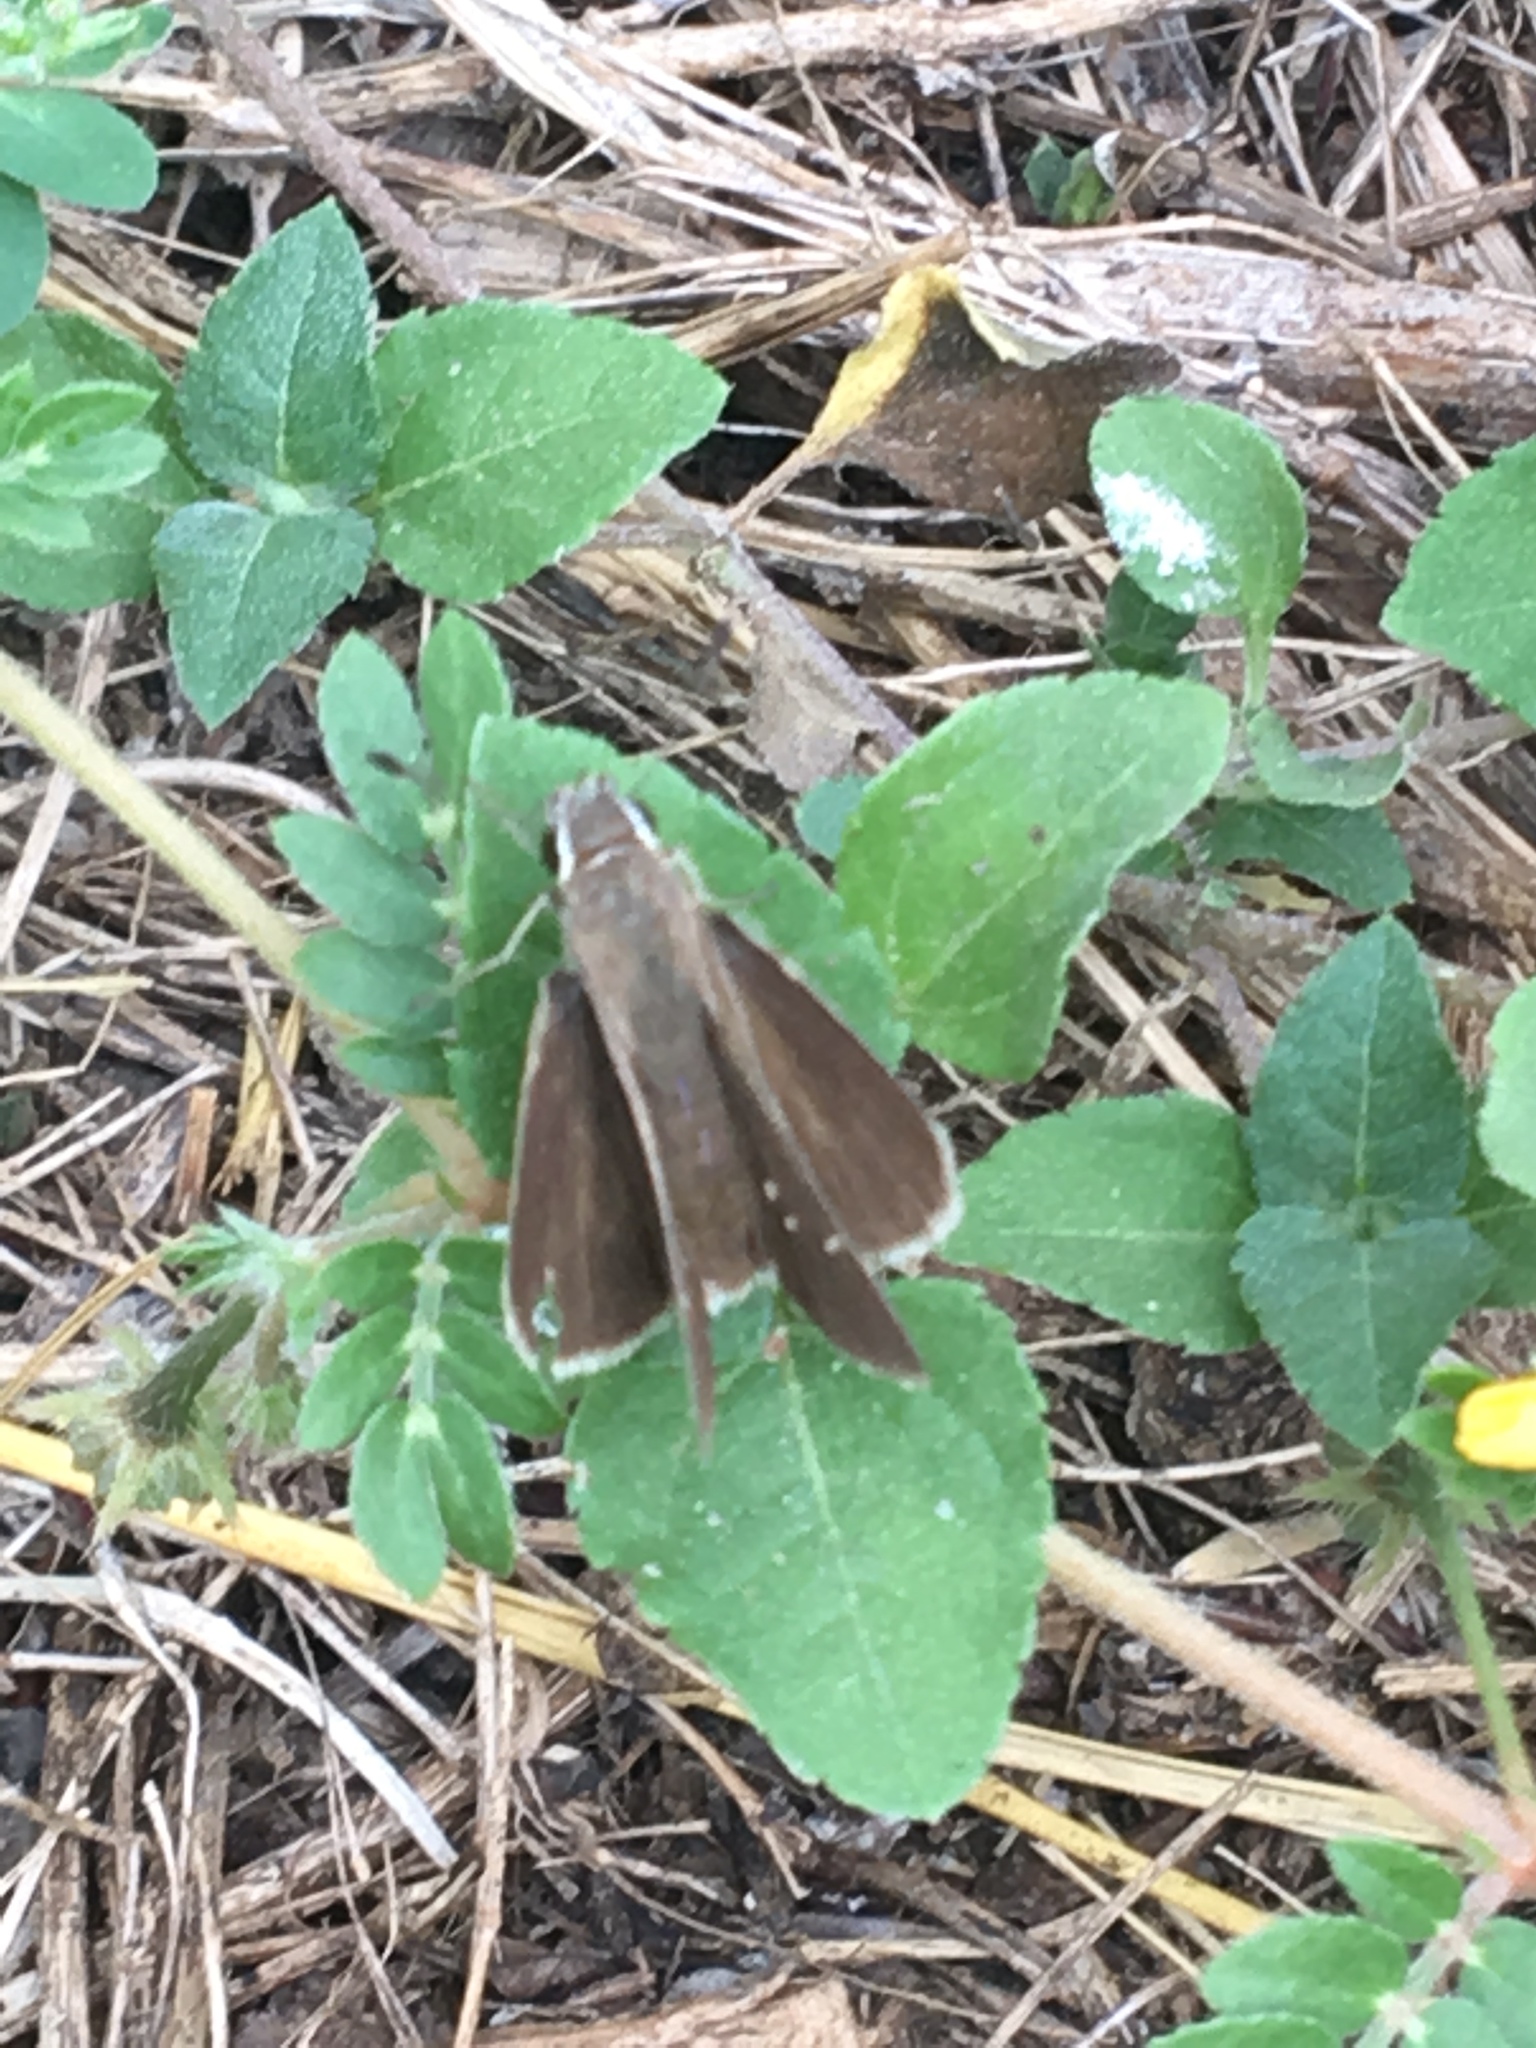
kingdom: Animalia
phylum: Arthropoda
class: Insecta
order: Lepidoptera
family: Hesperiidae
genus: Lerodea
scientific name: Lerodea eufala
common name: Eufala skipper
